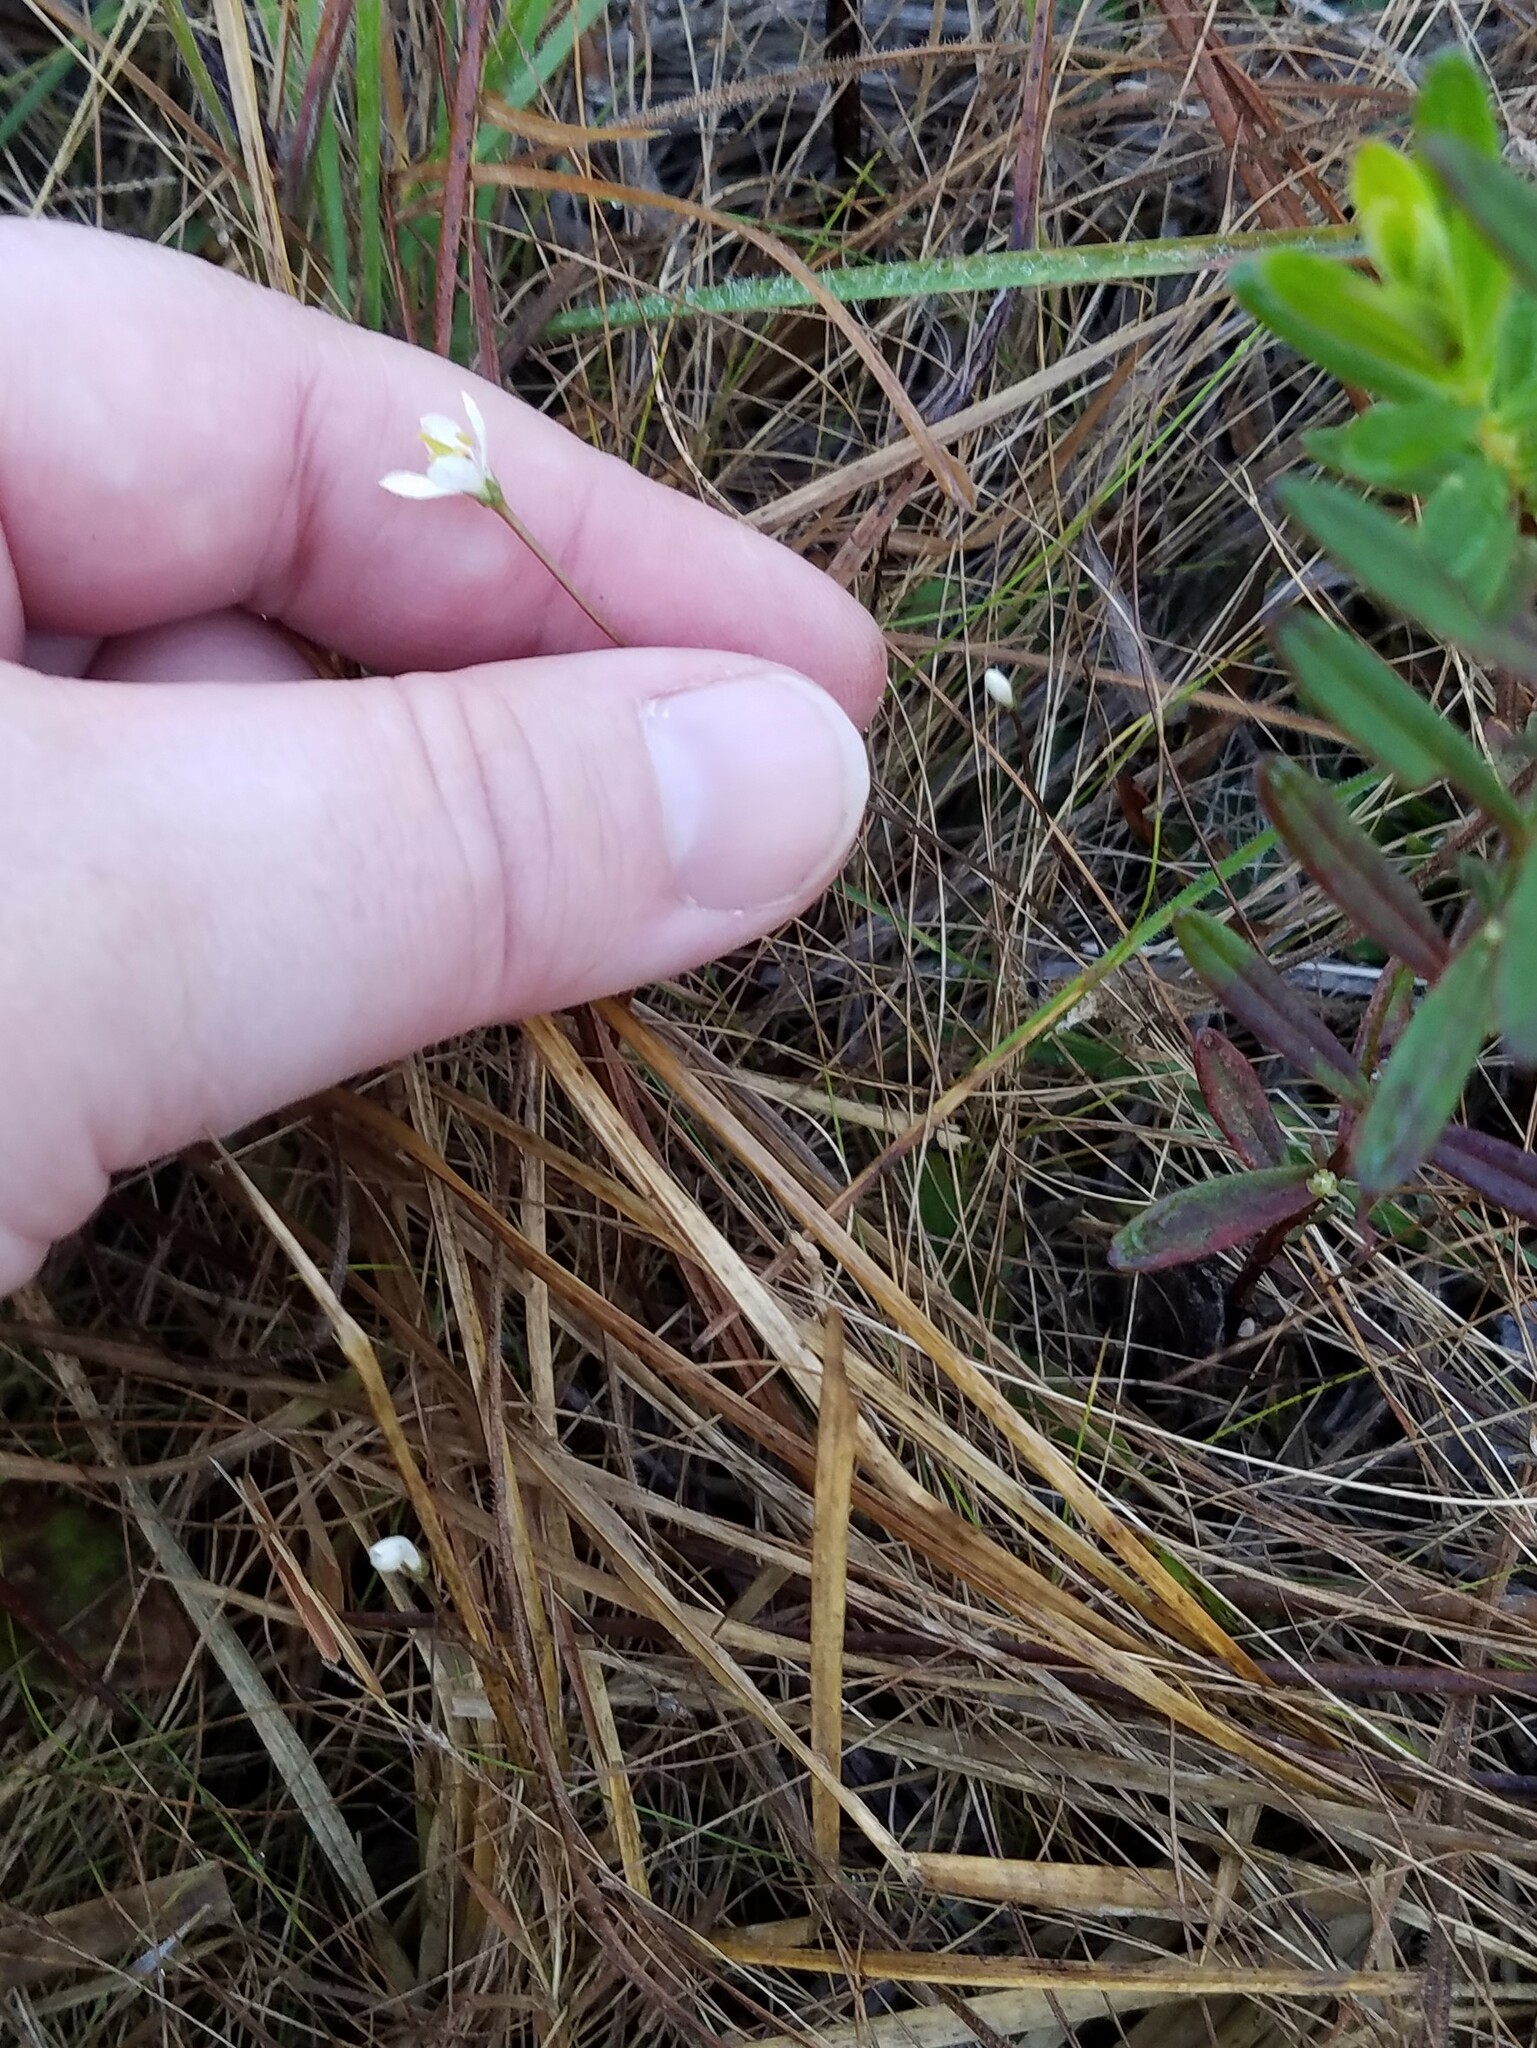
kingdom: Plantae
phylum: Tracheophyta
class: Magnoliopsida
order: Gentianales
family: Gentianaceae
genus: Bartonia
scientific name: Bartonia verna
